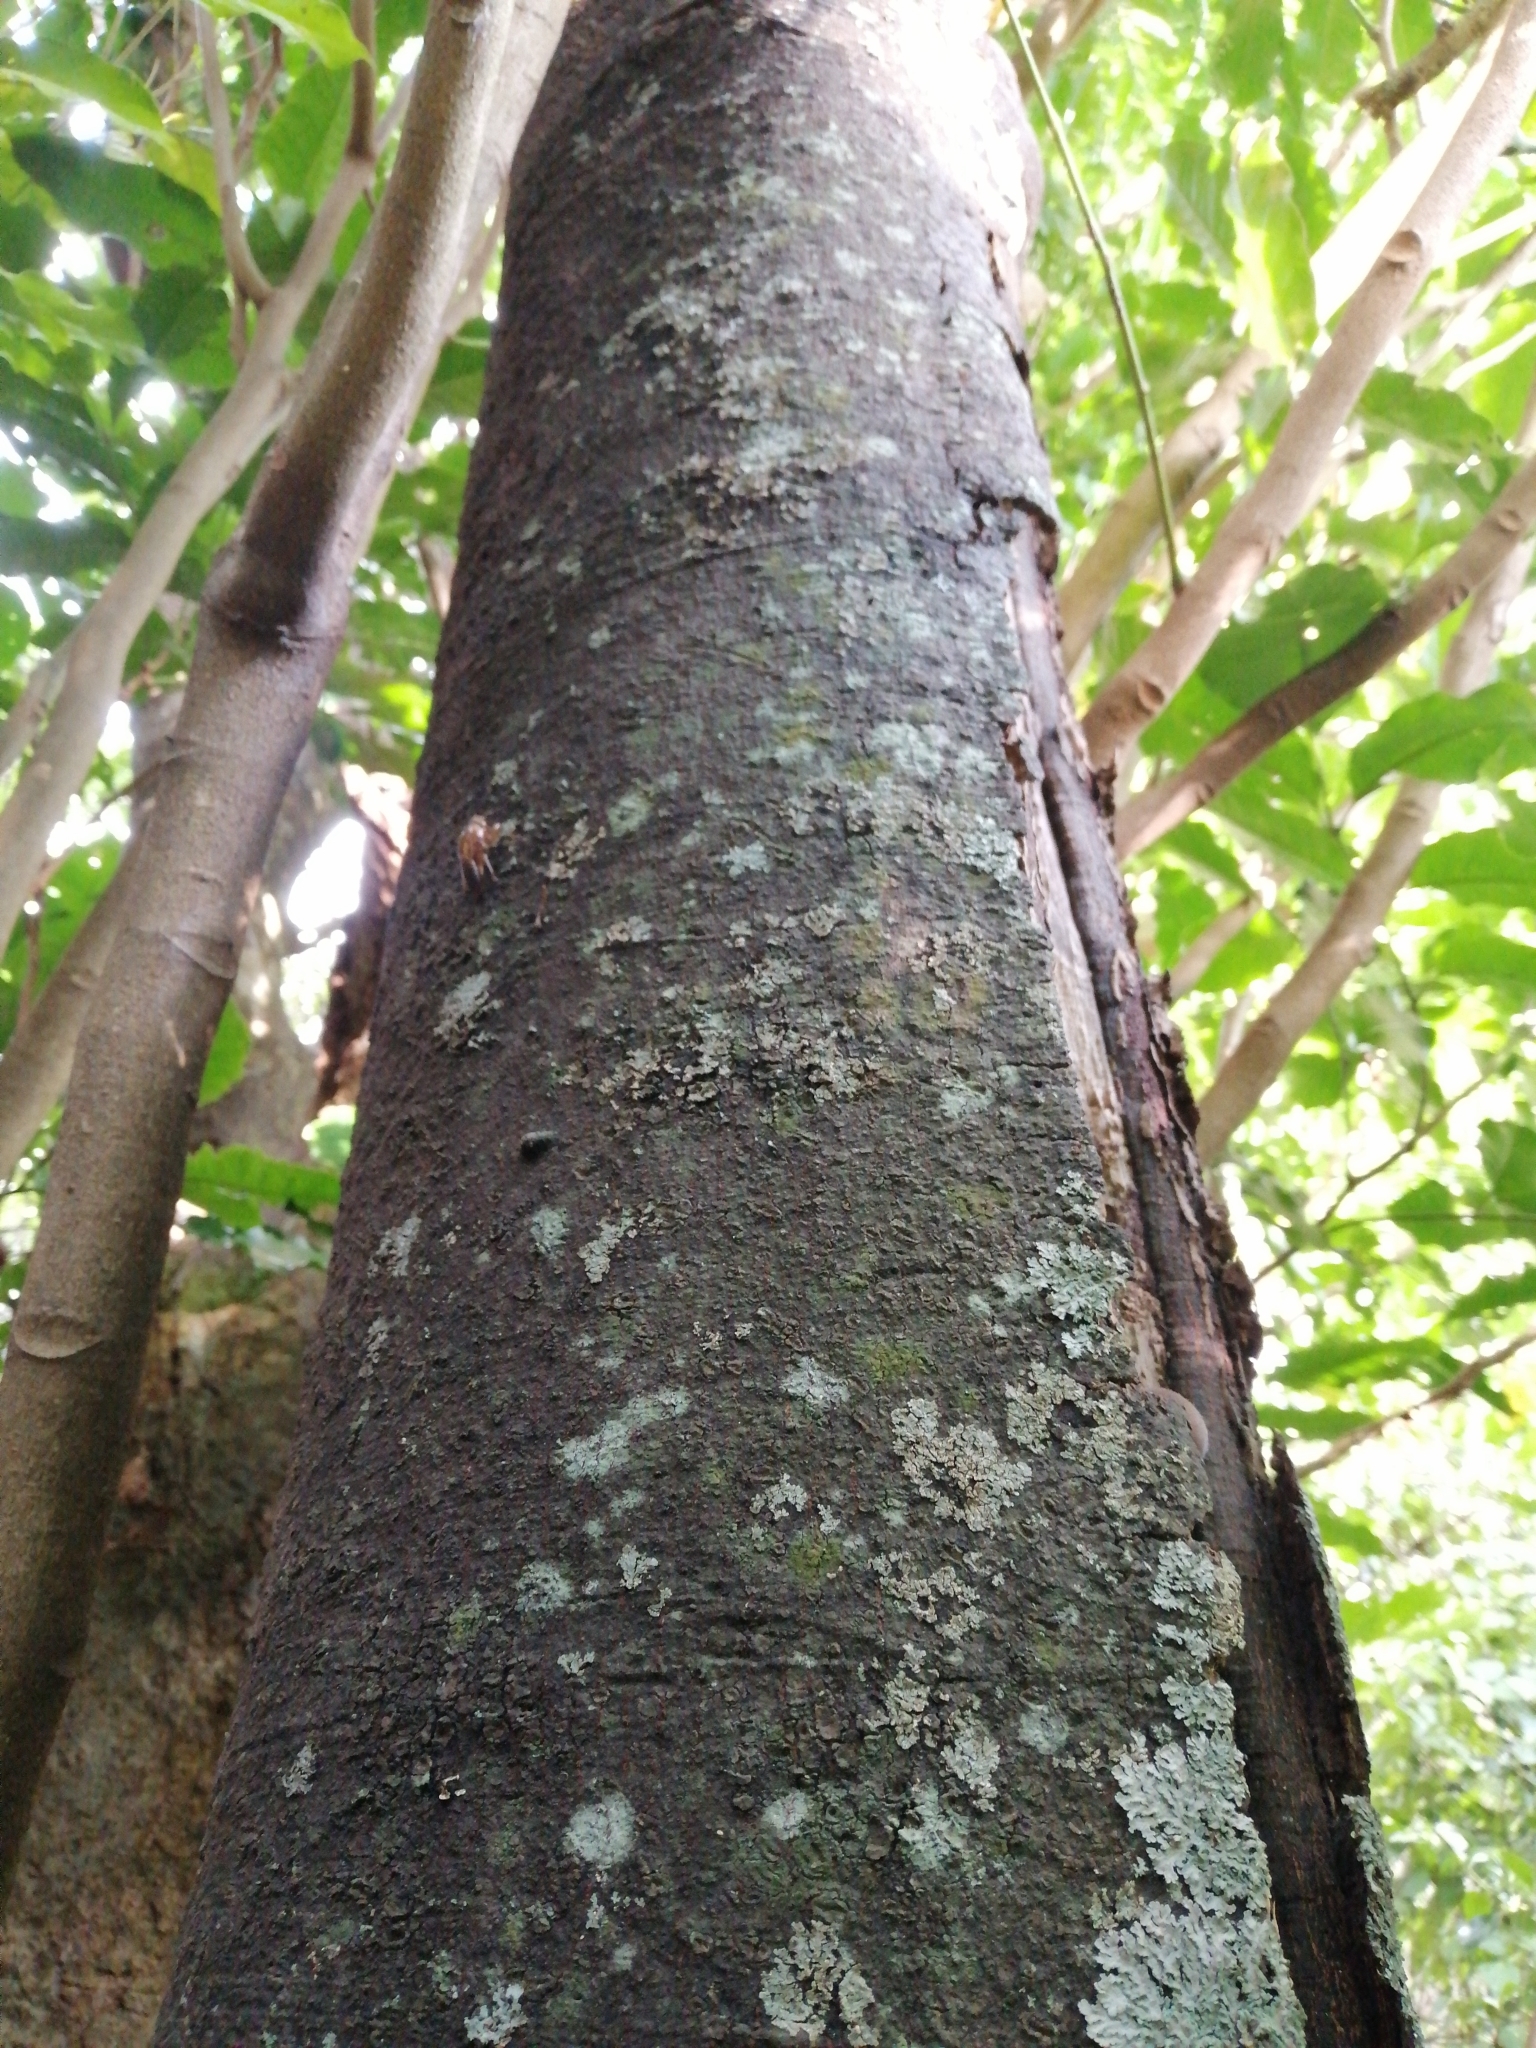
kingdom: Plantae
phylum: Tracheophyta
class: Magnoliopsida
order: Proteales
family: Proteaceae
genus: Knightia
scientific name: Knightia excelsa
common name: New zealand-honeysuckle
